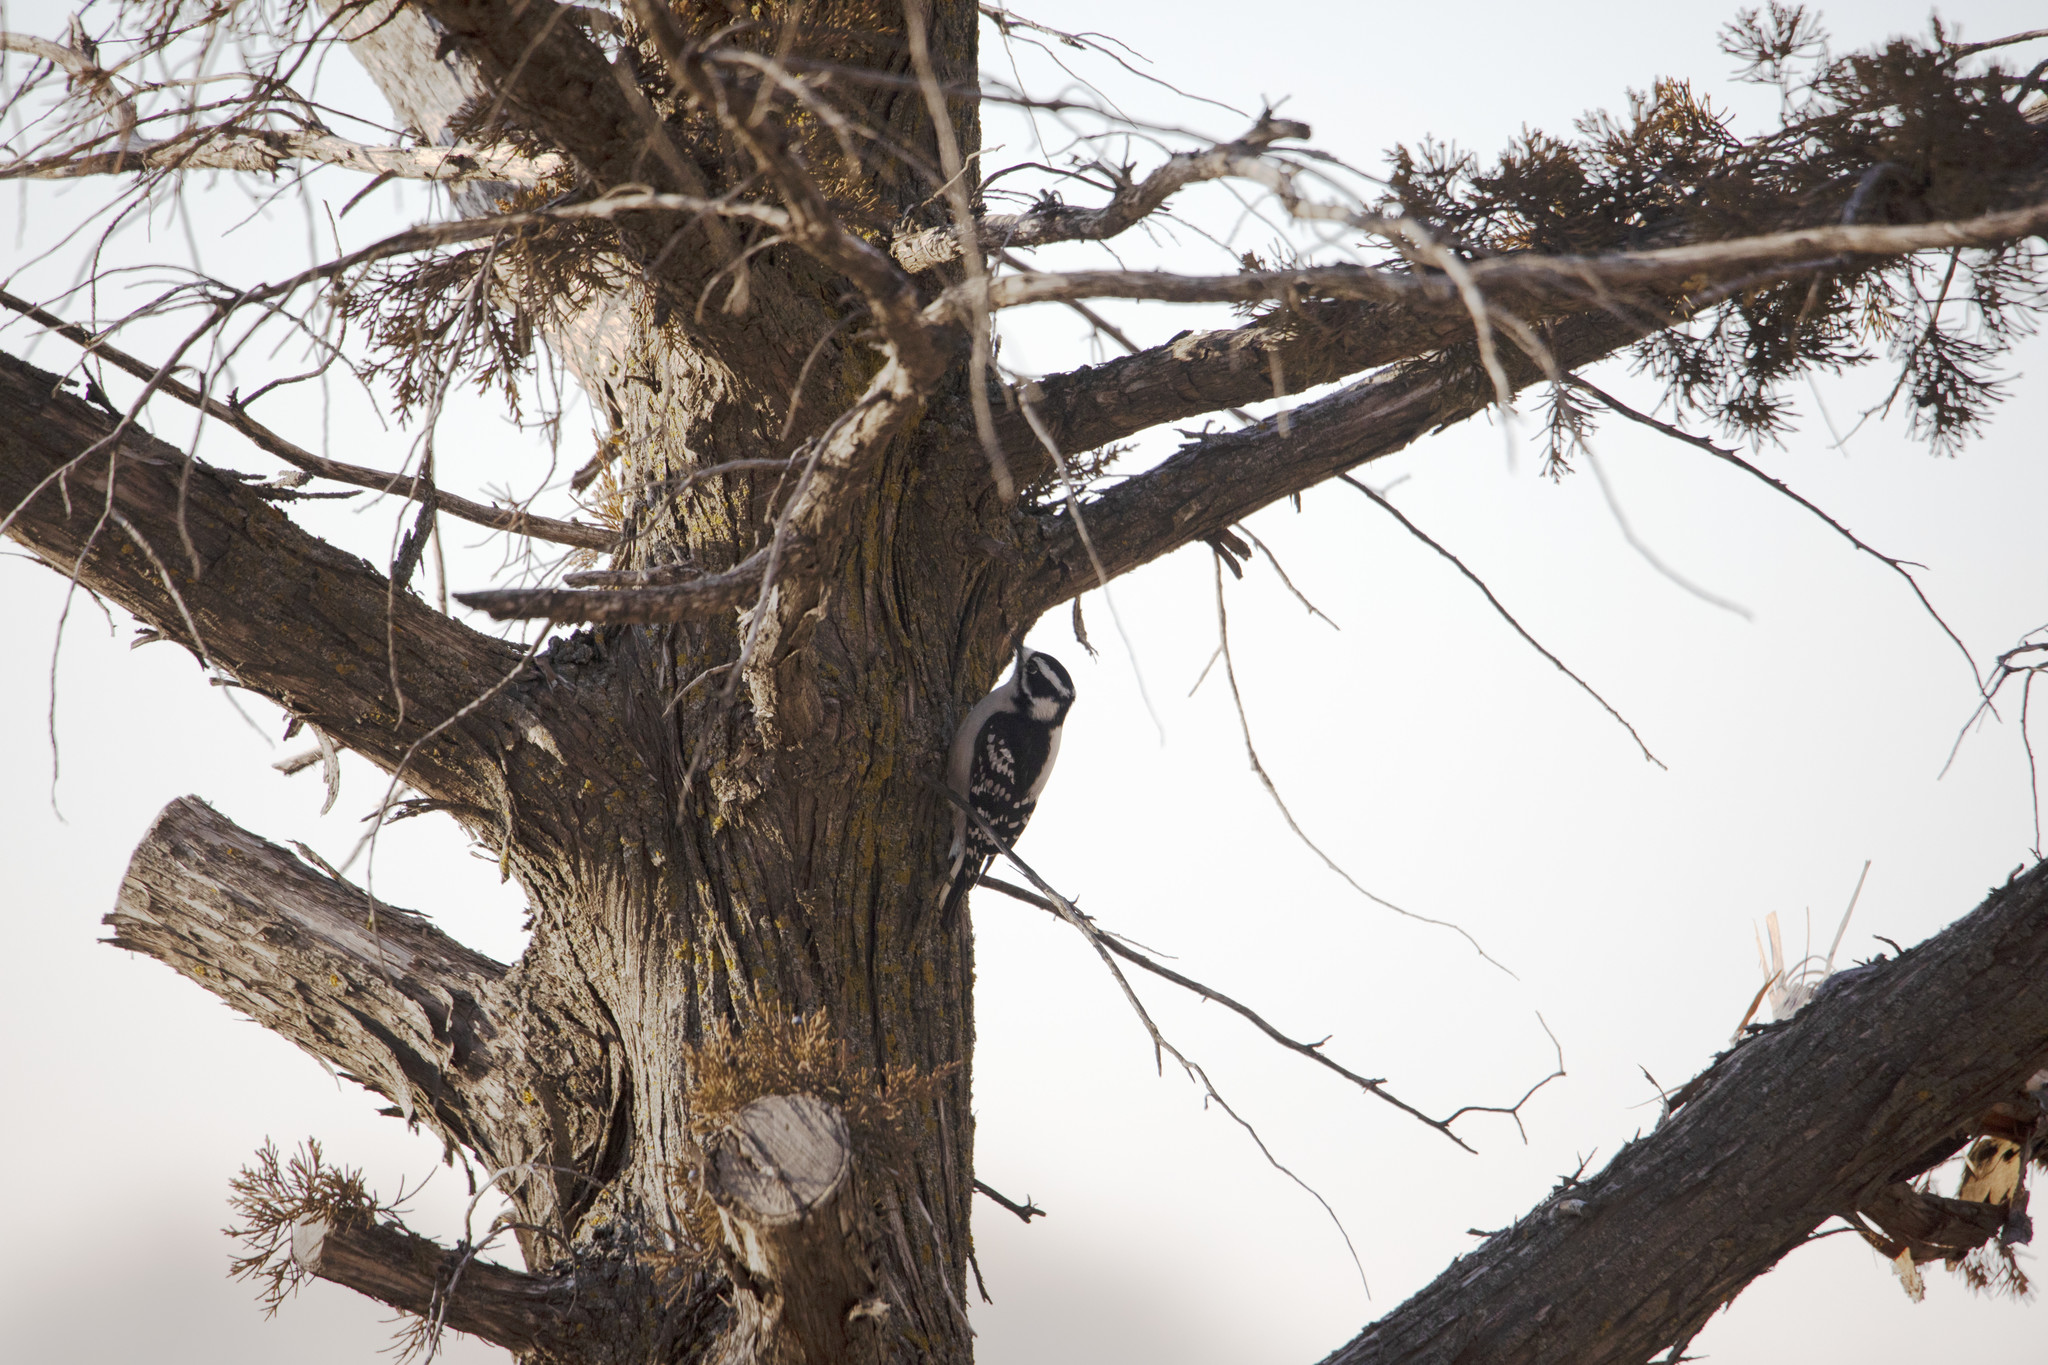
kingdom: Animalia
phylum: Chordata
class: Aves
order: Piciformes
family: Picidae
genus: Dryobates
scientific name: Dryobates pubescens
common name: Downy woodpecker
